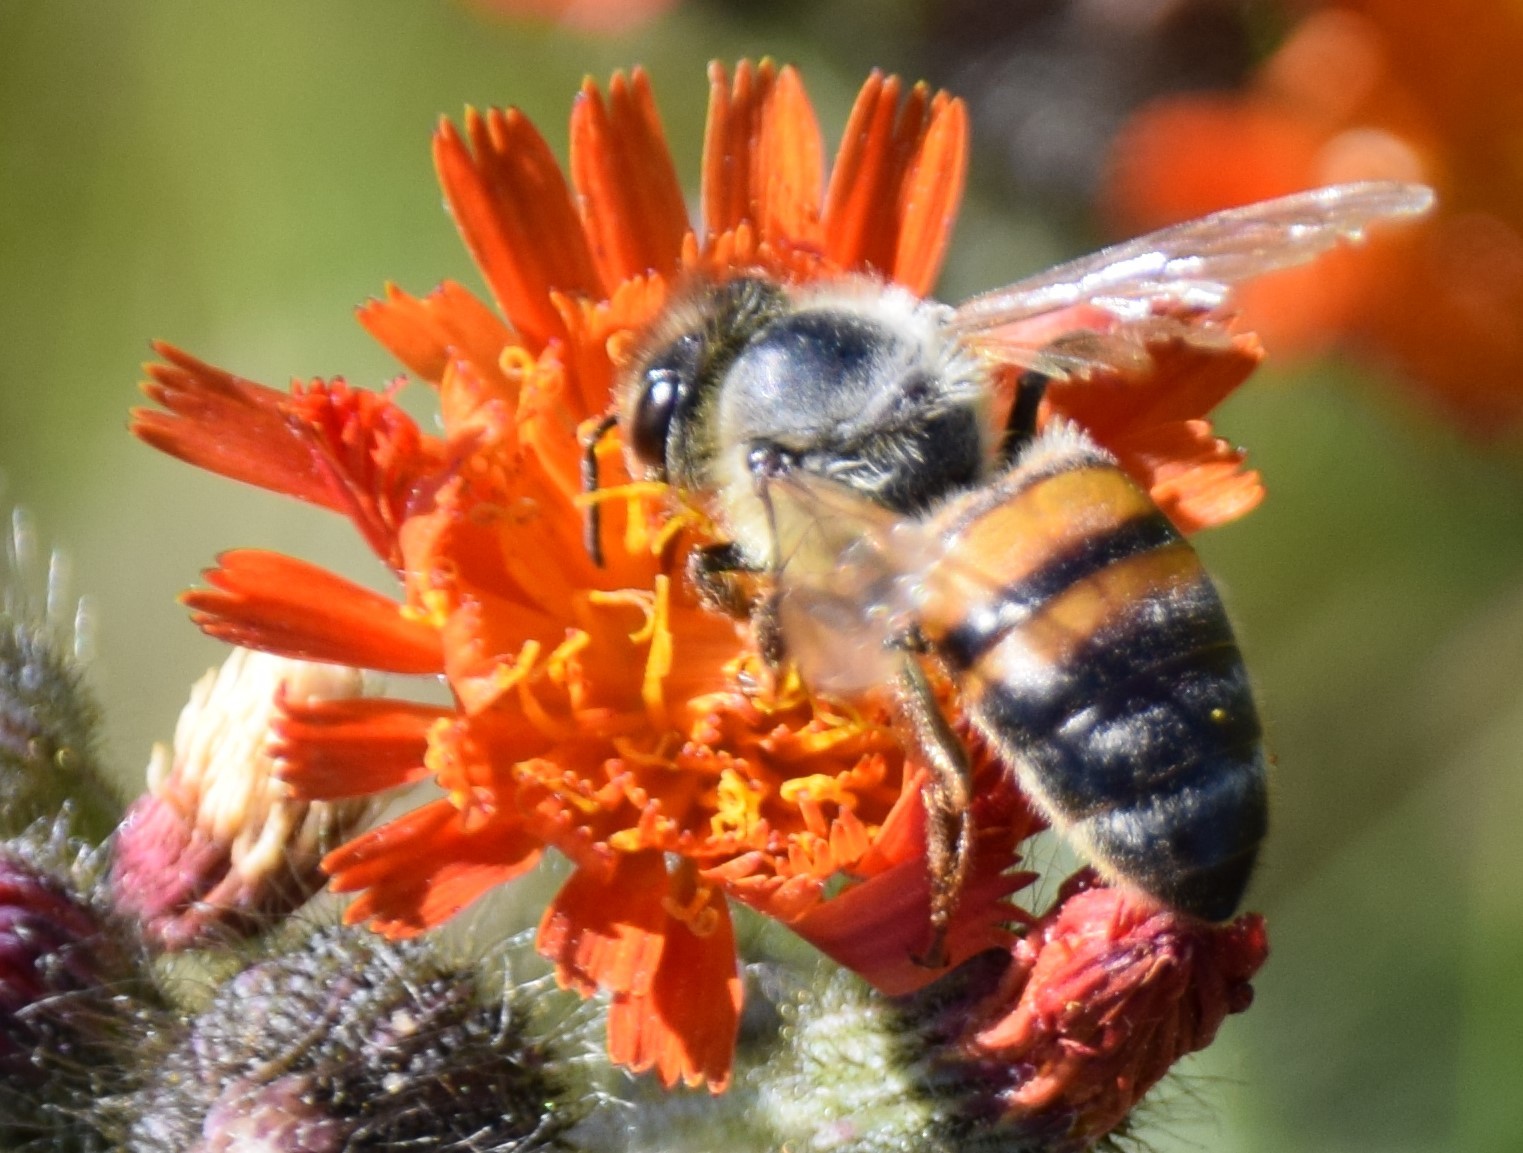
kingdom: Animalia
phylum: Arthropoda
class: Insecta
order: Hymenoptera
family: Apidae
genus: Apis
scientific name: Apis mellifera
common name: Honey bee
